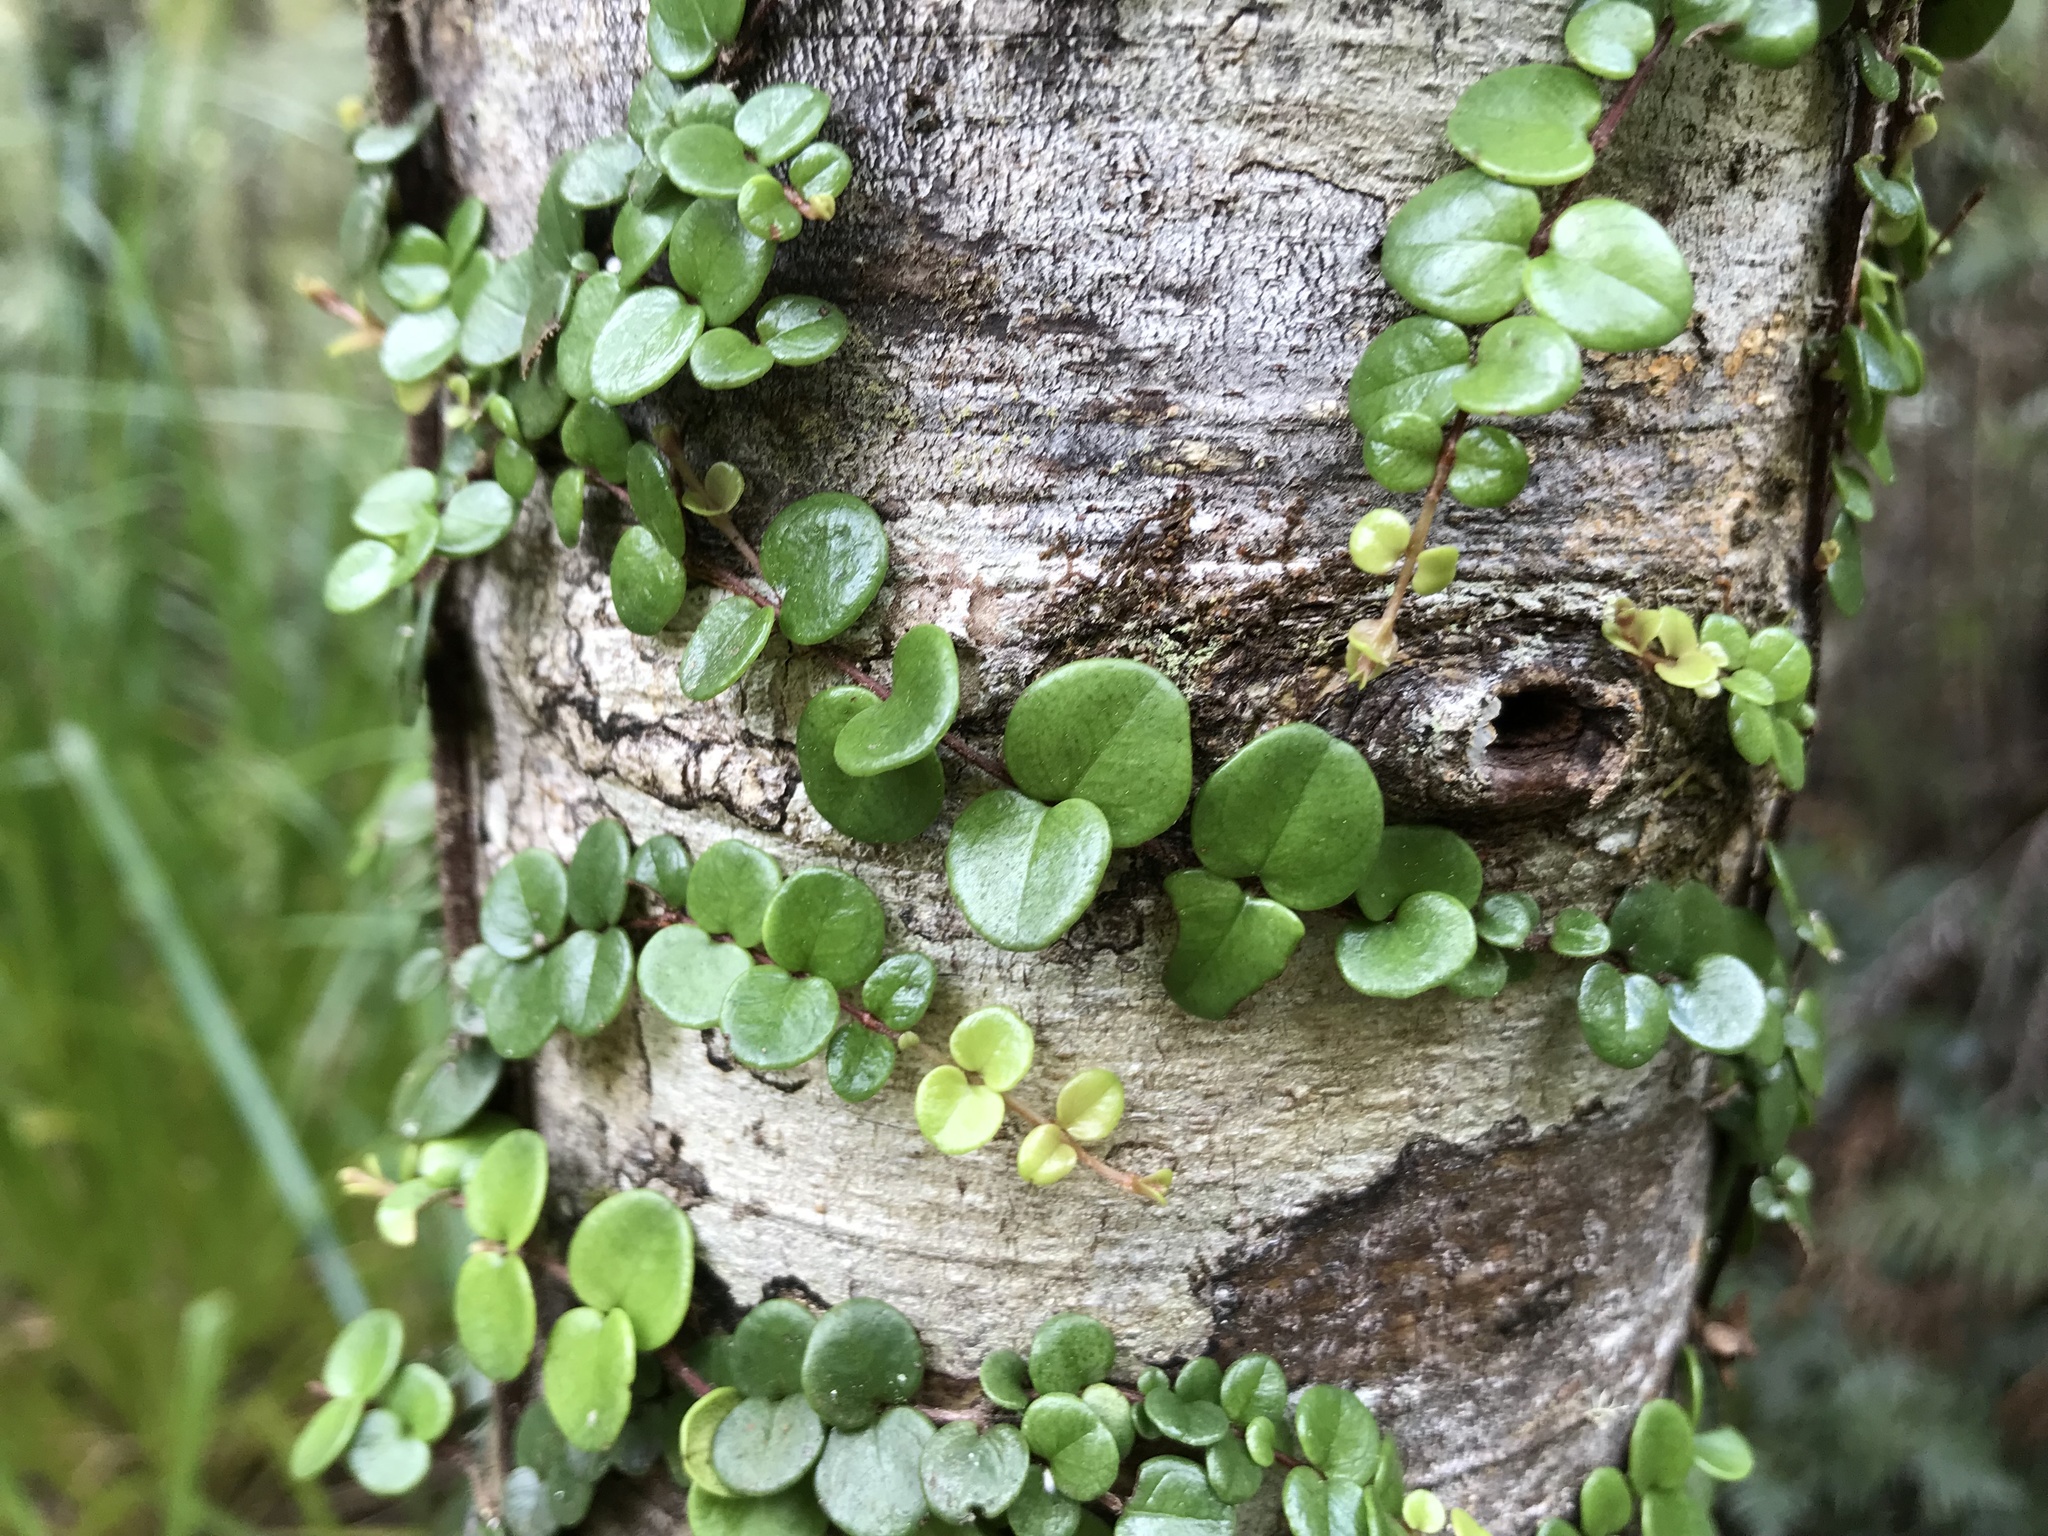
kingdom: Plantae
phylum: Tracheophyta
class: Magnoliopsida
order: Myrtales
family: Myrtaceae
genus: Metrosideros
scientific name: Metrosideros perforata
